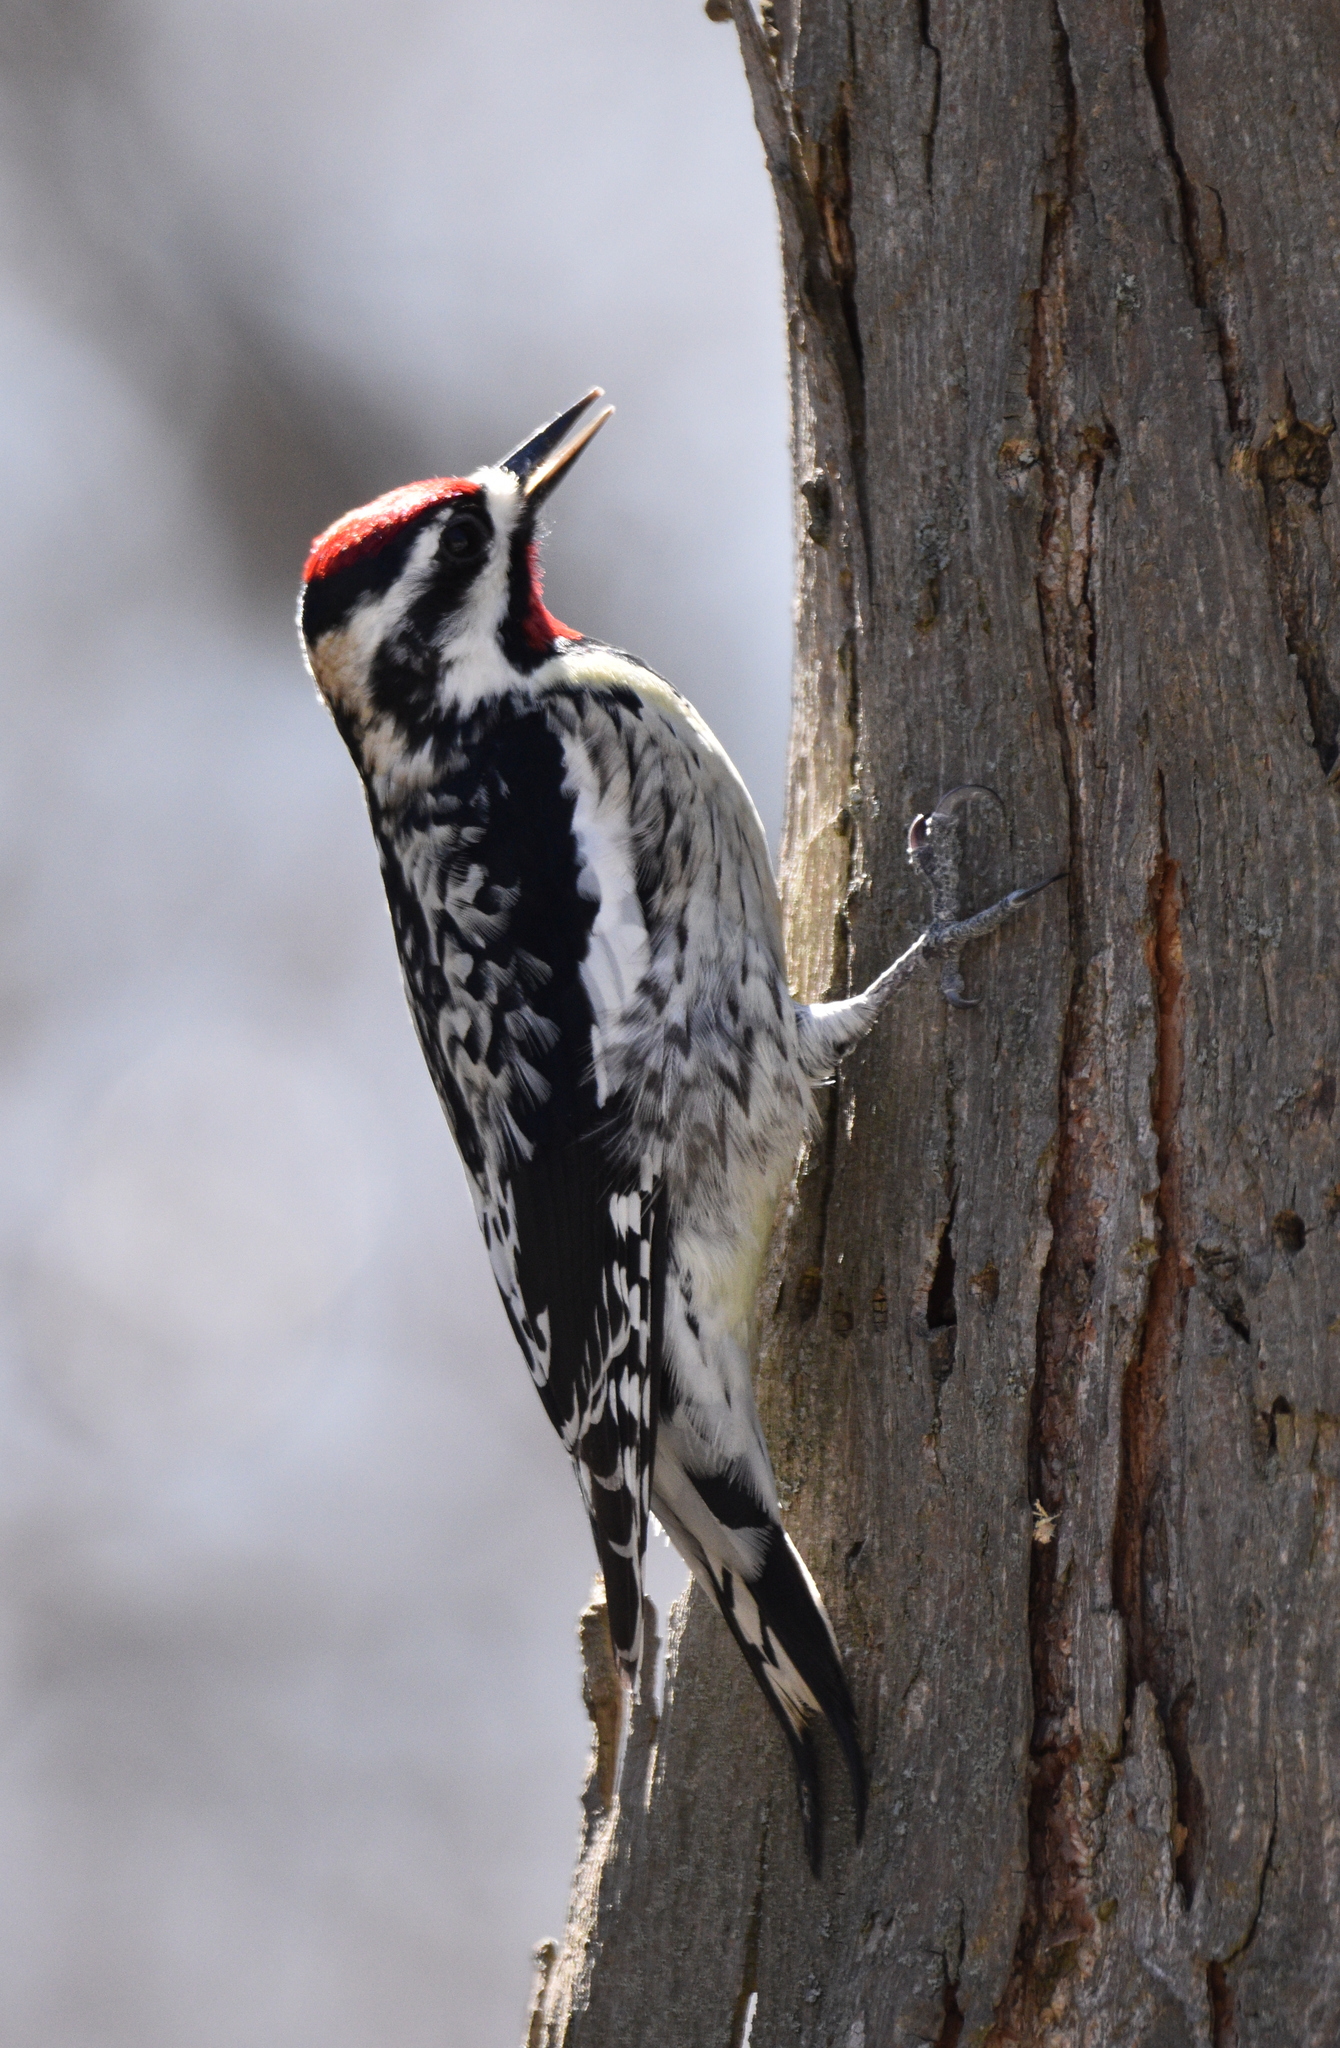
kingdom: Animalia
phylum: Chordata
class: Aves
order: Piciformes
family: Picidae
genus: Sphyrapicus
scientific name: Sphyrapicus varius
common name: Yellow-bellied sapsucker
